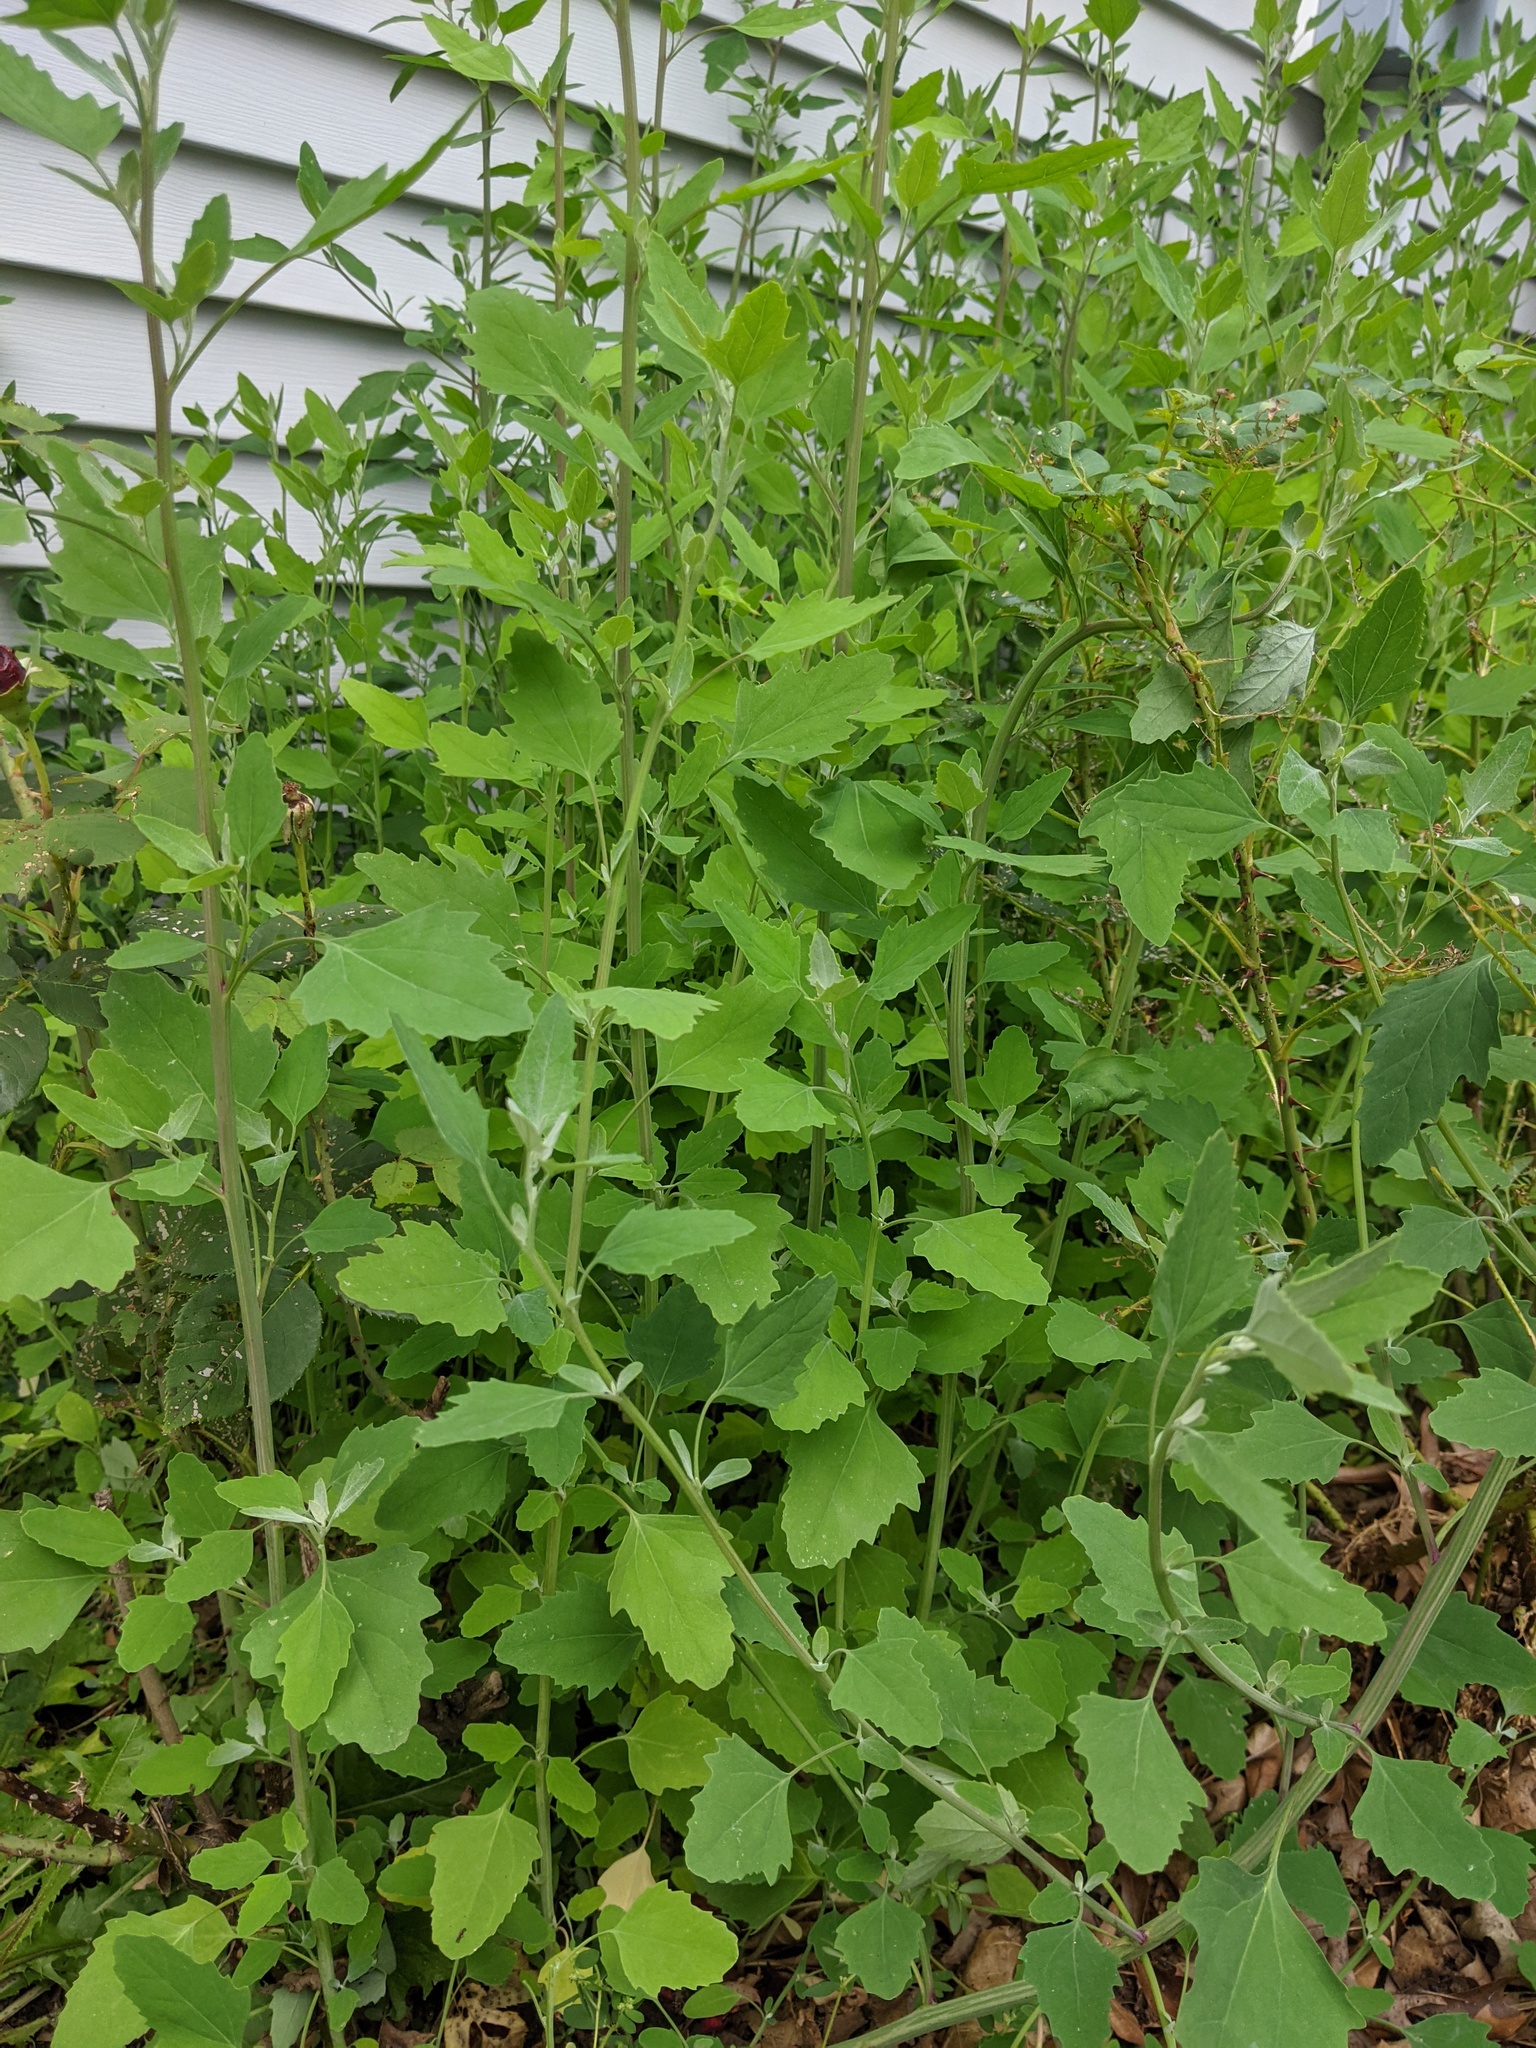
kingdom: Plantae
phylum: Tracheophyta
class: Magnoliopsida
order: Caryophyllales
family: Amaranthaceae
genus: Chenopodium
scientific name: Chenopodium album
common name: Fat-hen
